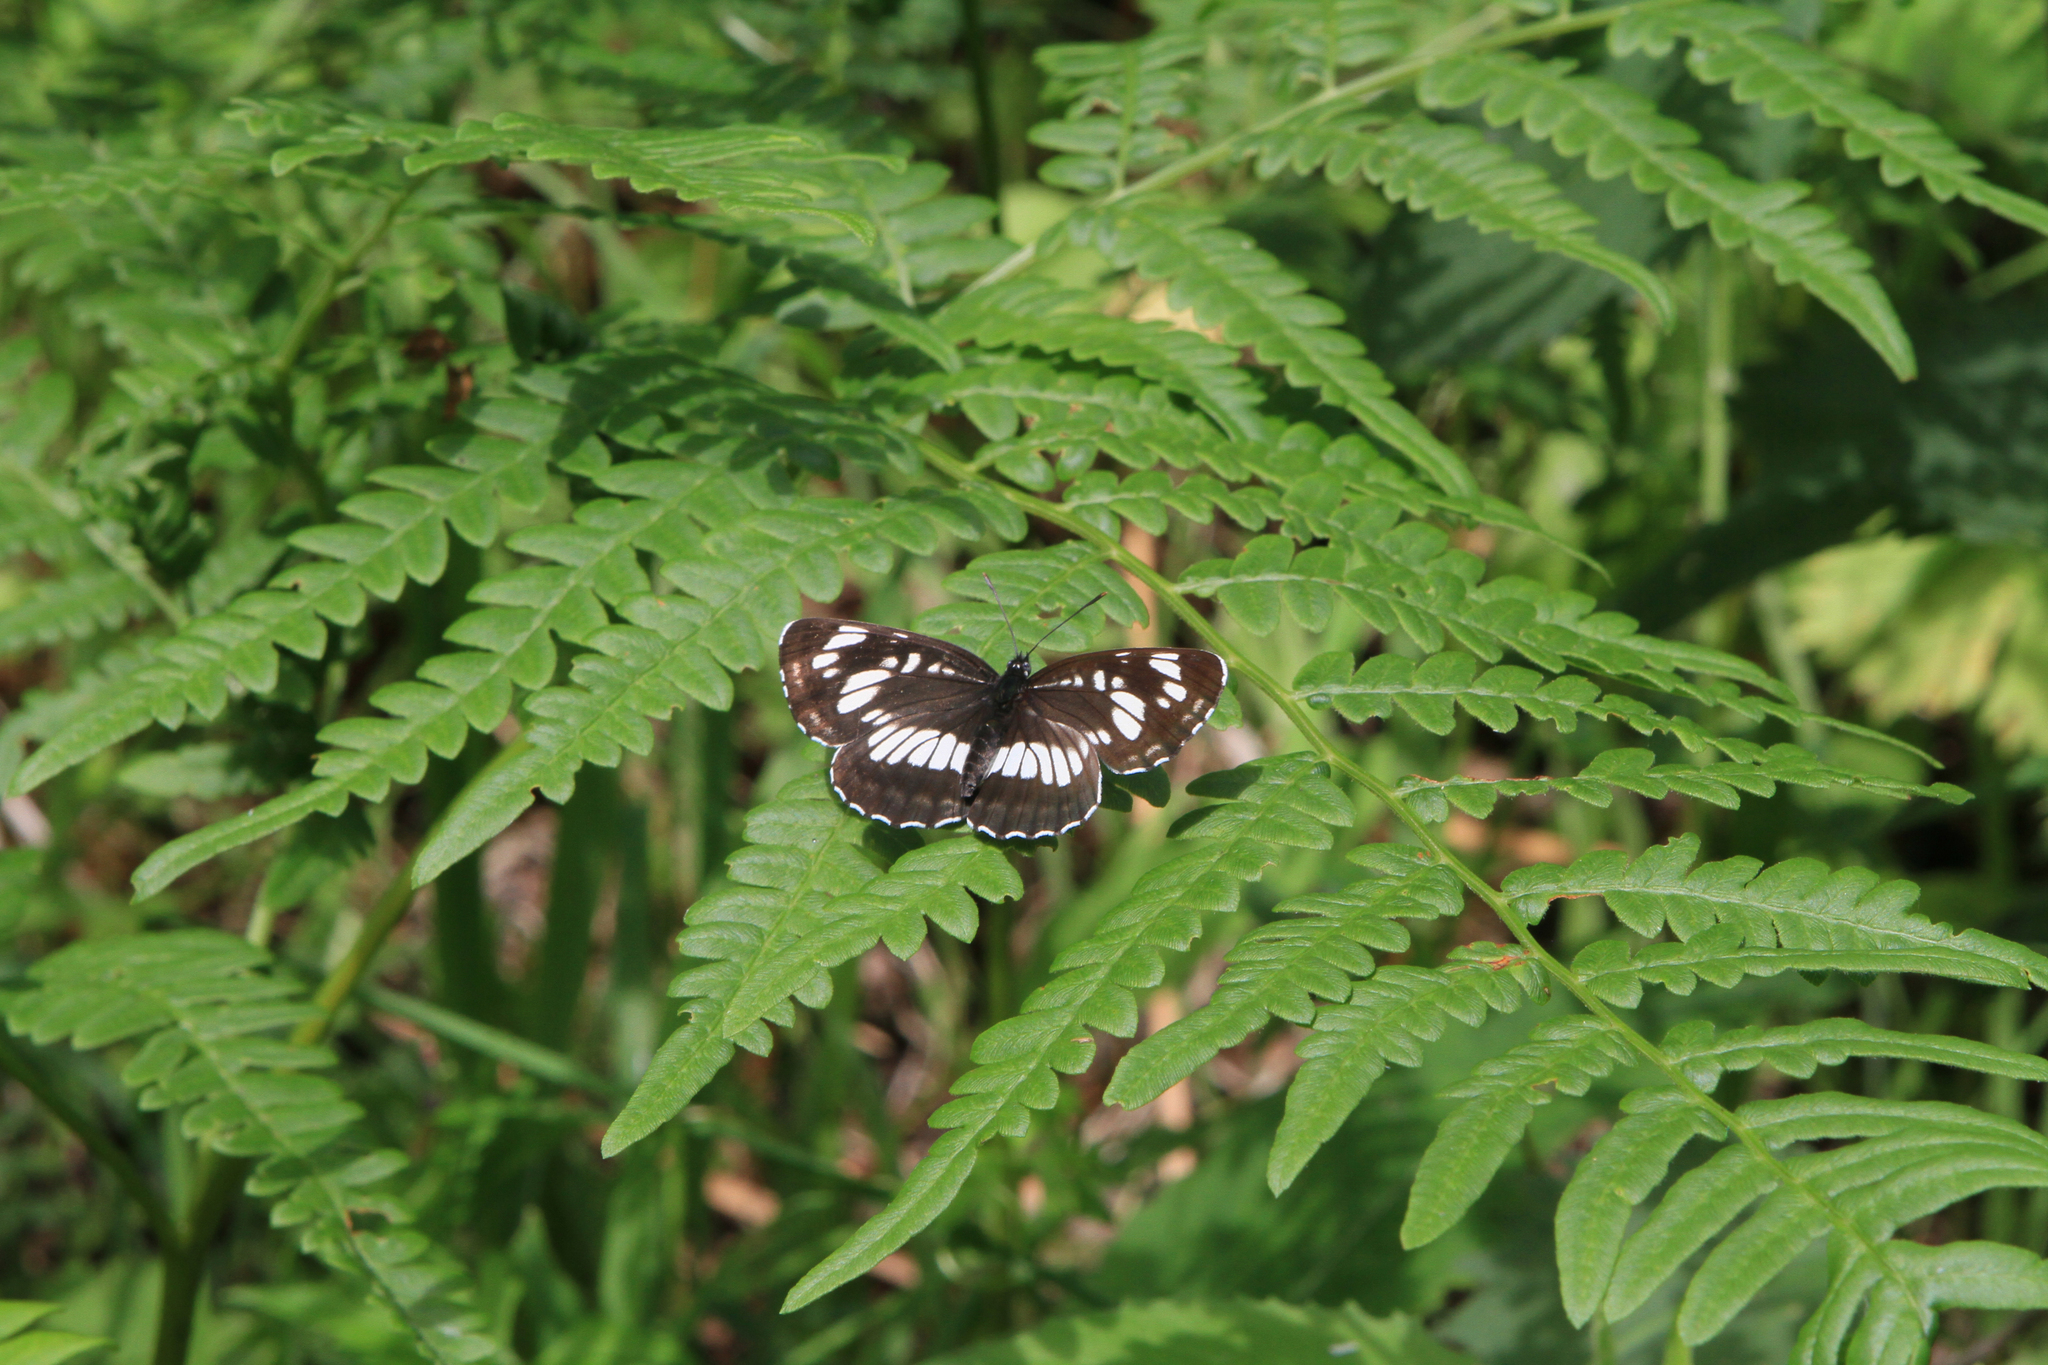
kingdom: Animalia
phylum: Arthropoda
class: Insecta
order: Lepidoptera
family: Nymphalidae
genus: Neptis
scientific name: Neptis sappho
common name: Common glider
